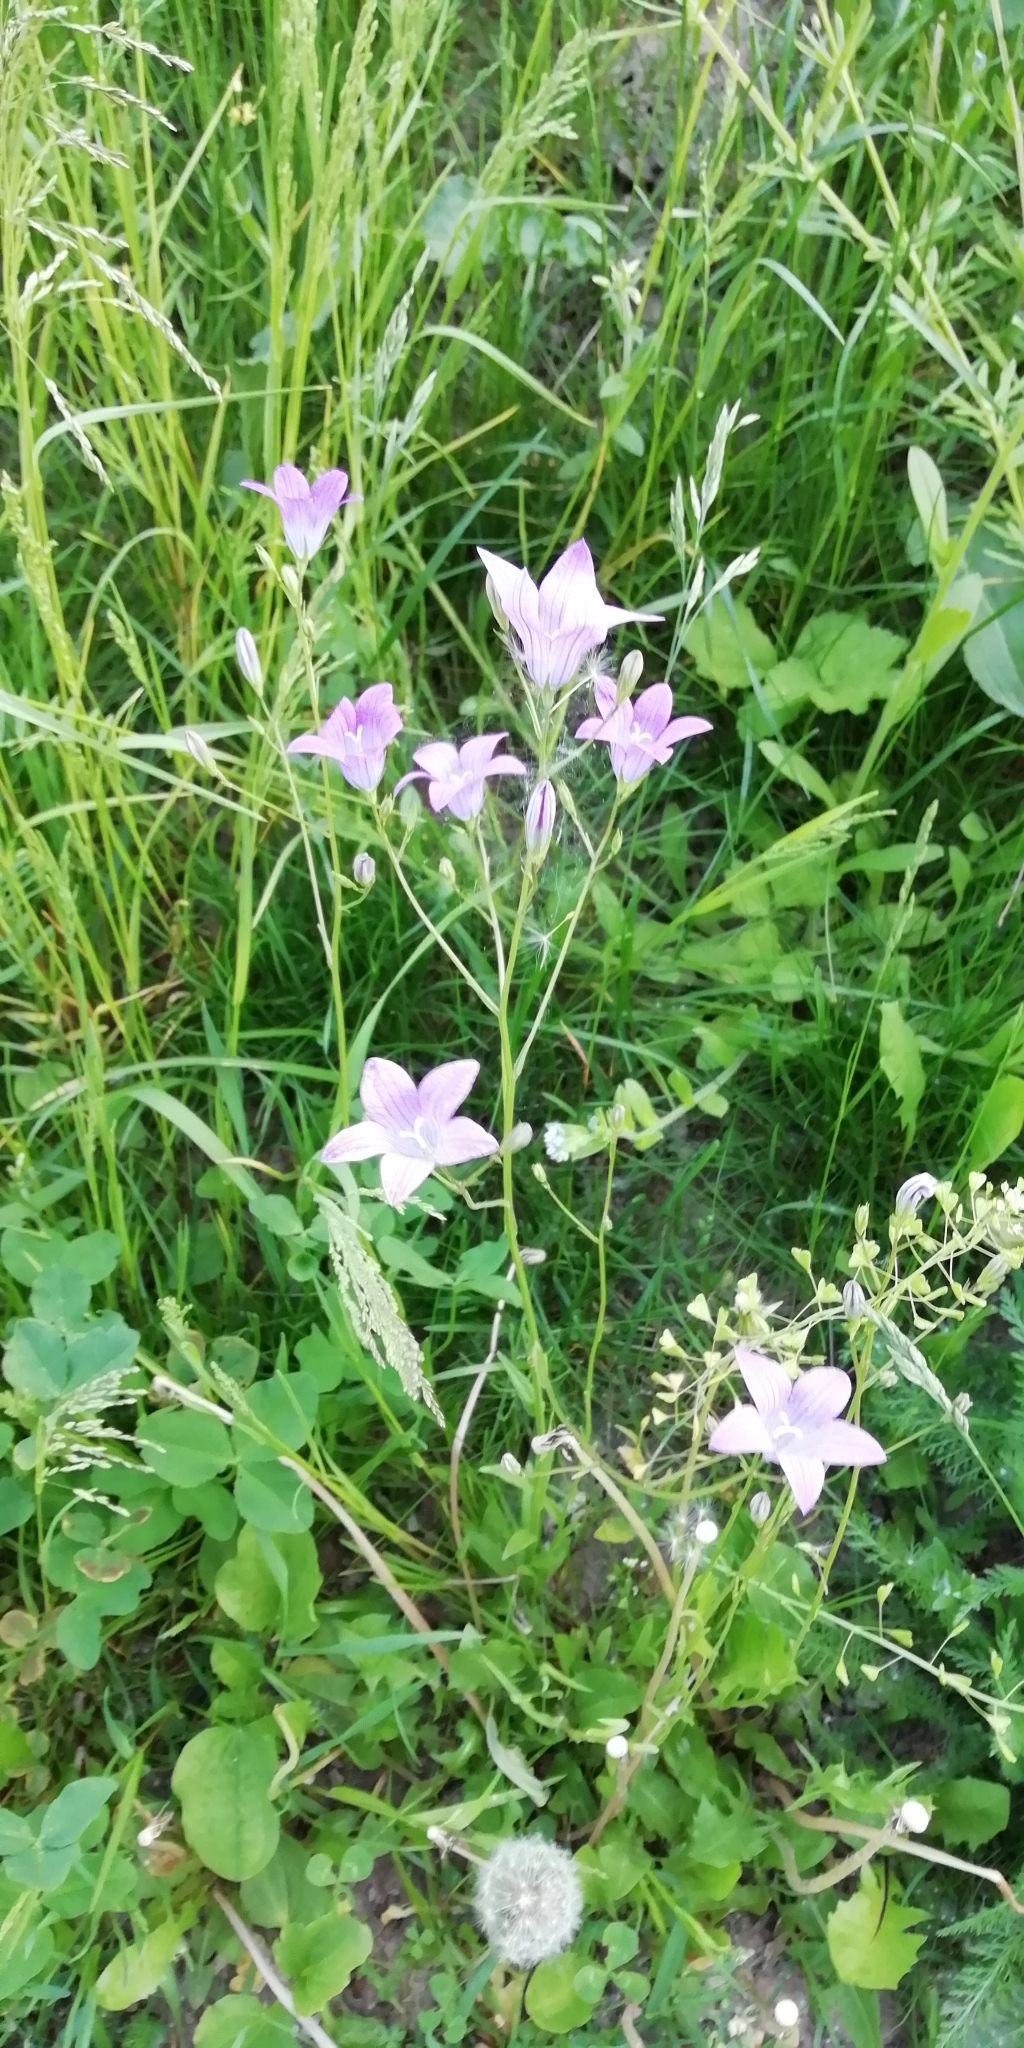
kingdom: Plantae
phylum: Tracheophyta
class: Magnoliopsida
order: Asterales
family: Campanulaceae
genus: Campanula
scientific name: Campanula patula
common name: Spreading bellflower
